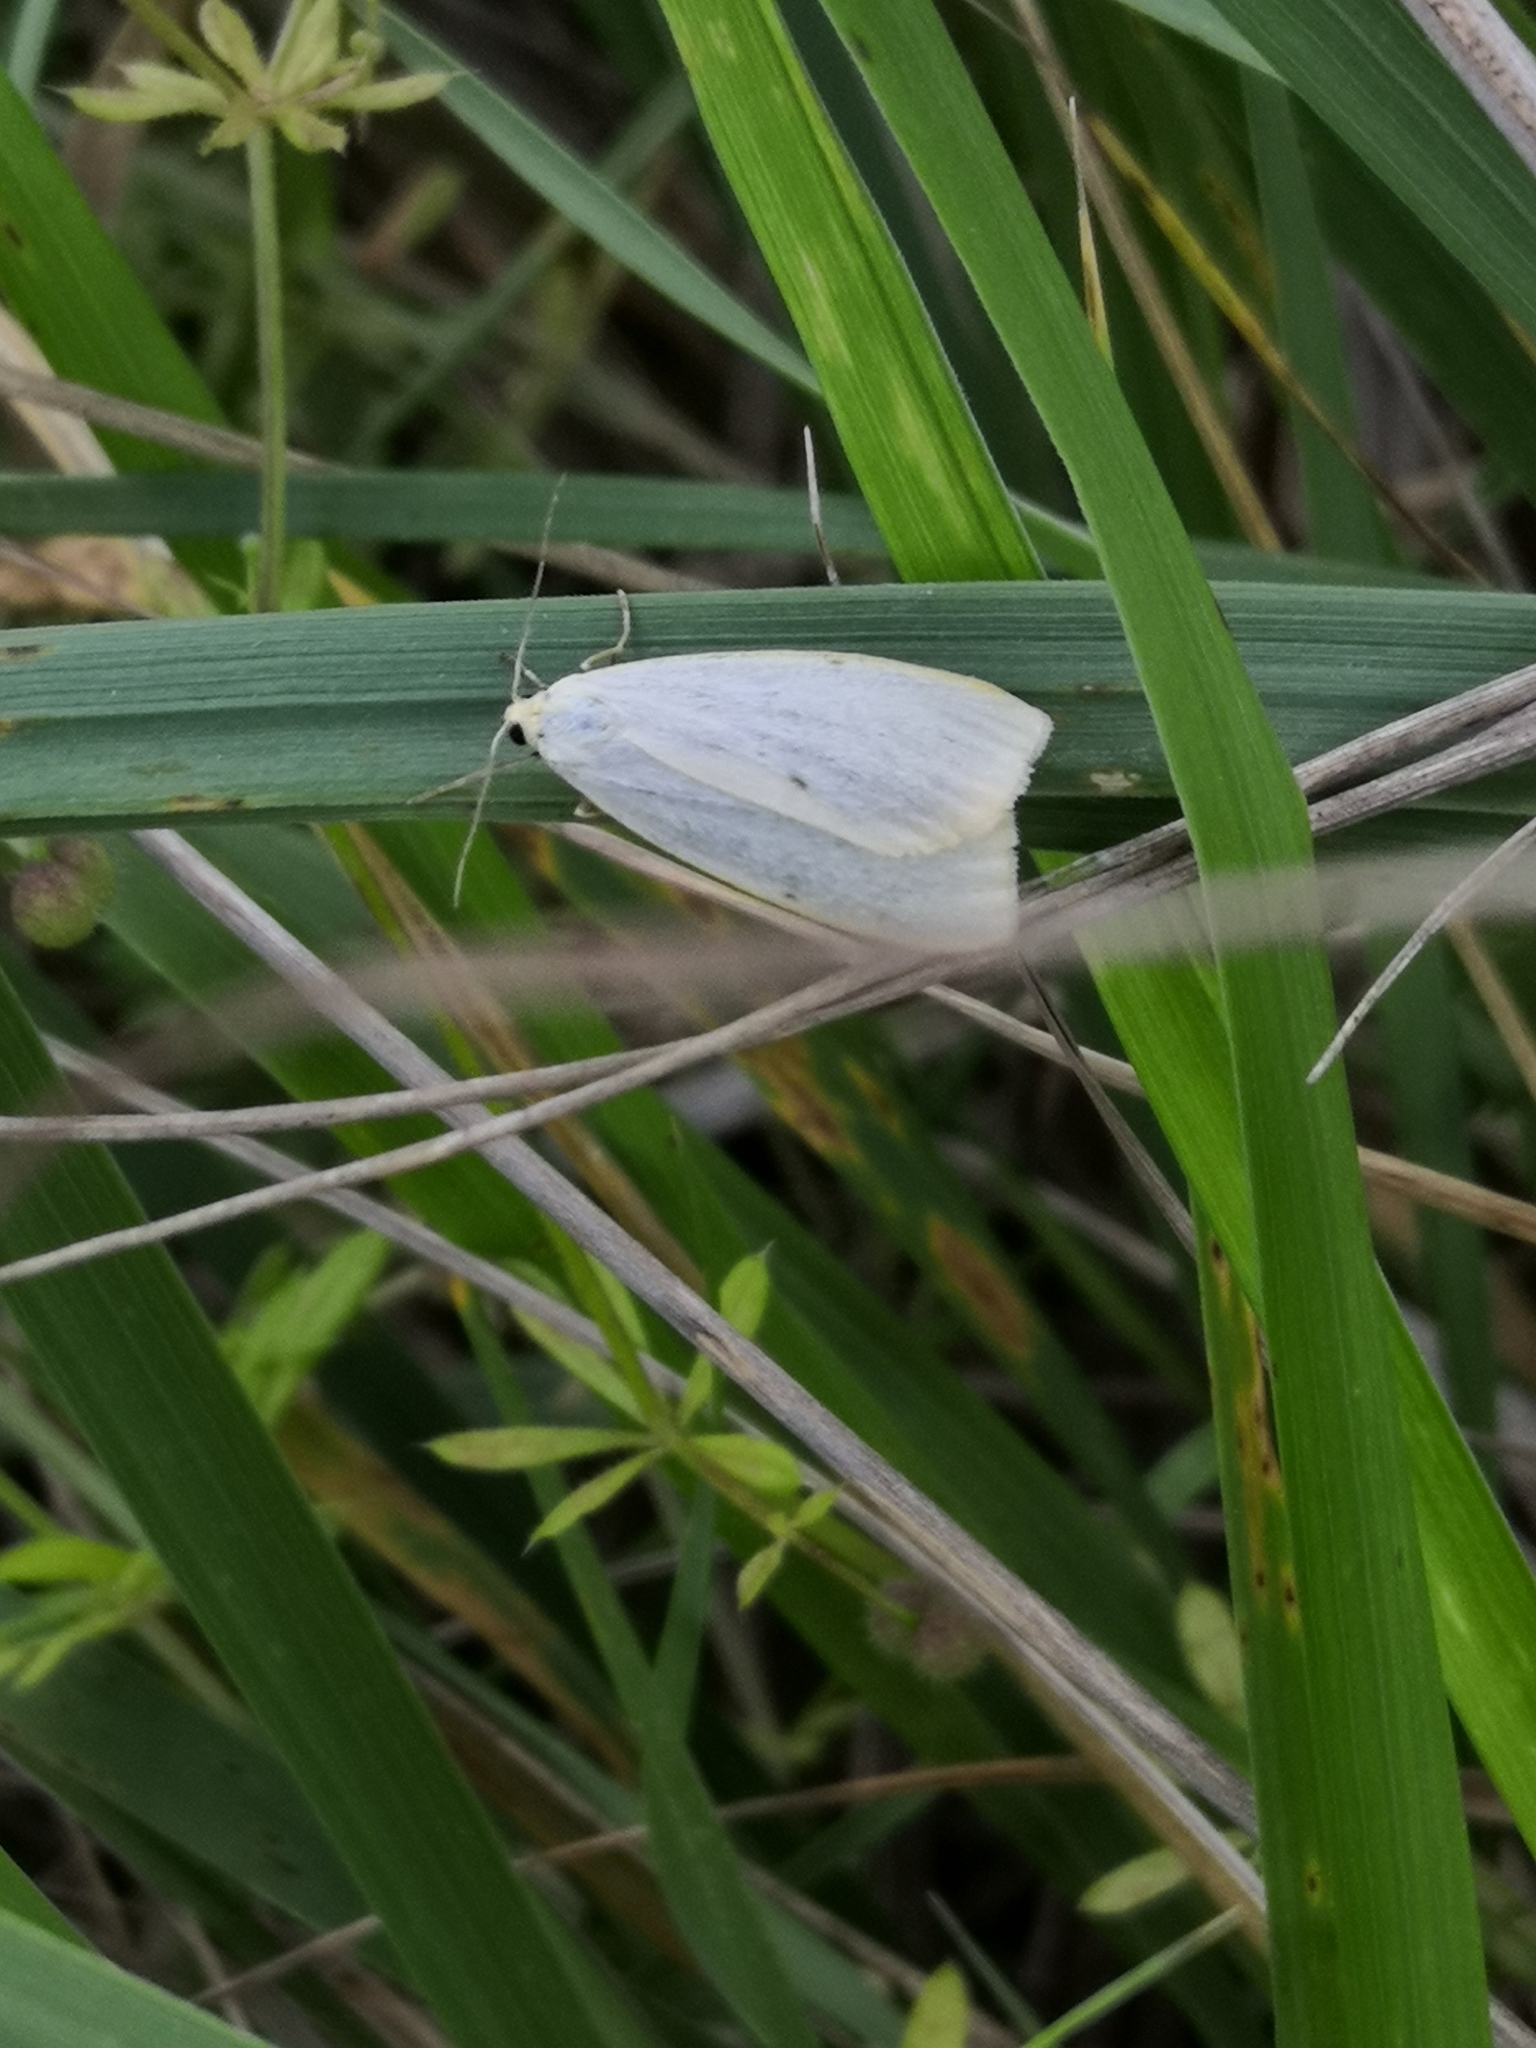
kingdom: Animalia
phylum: Arthropoda
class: Insecta
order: Lepidoptera
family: Erebidae
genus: Cybosia
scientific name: Cybosia mesomella
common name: Four-dotted footman
